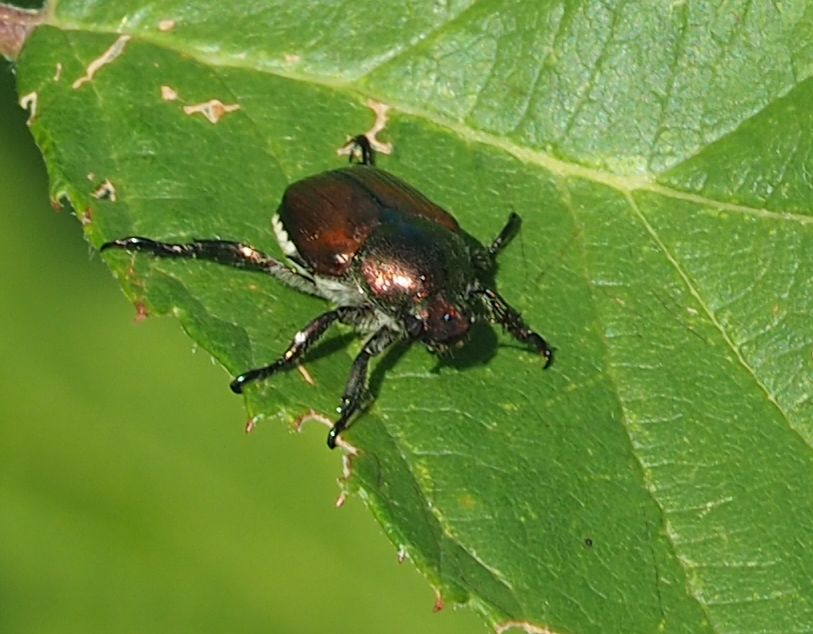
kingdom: Animalia
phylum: Arthropoda
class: Insecta
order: Coleoptera
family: Scarabaeidae
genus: Popillia
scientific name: Popillia japonica
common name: Japanese beetle
